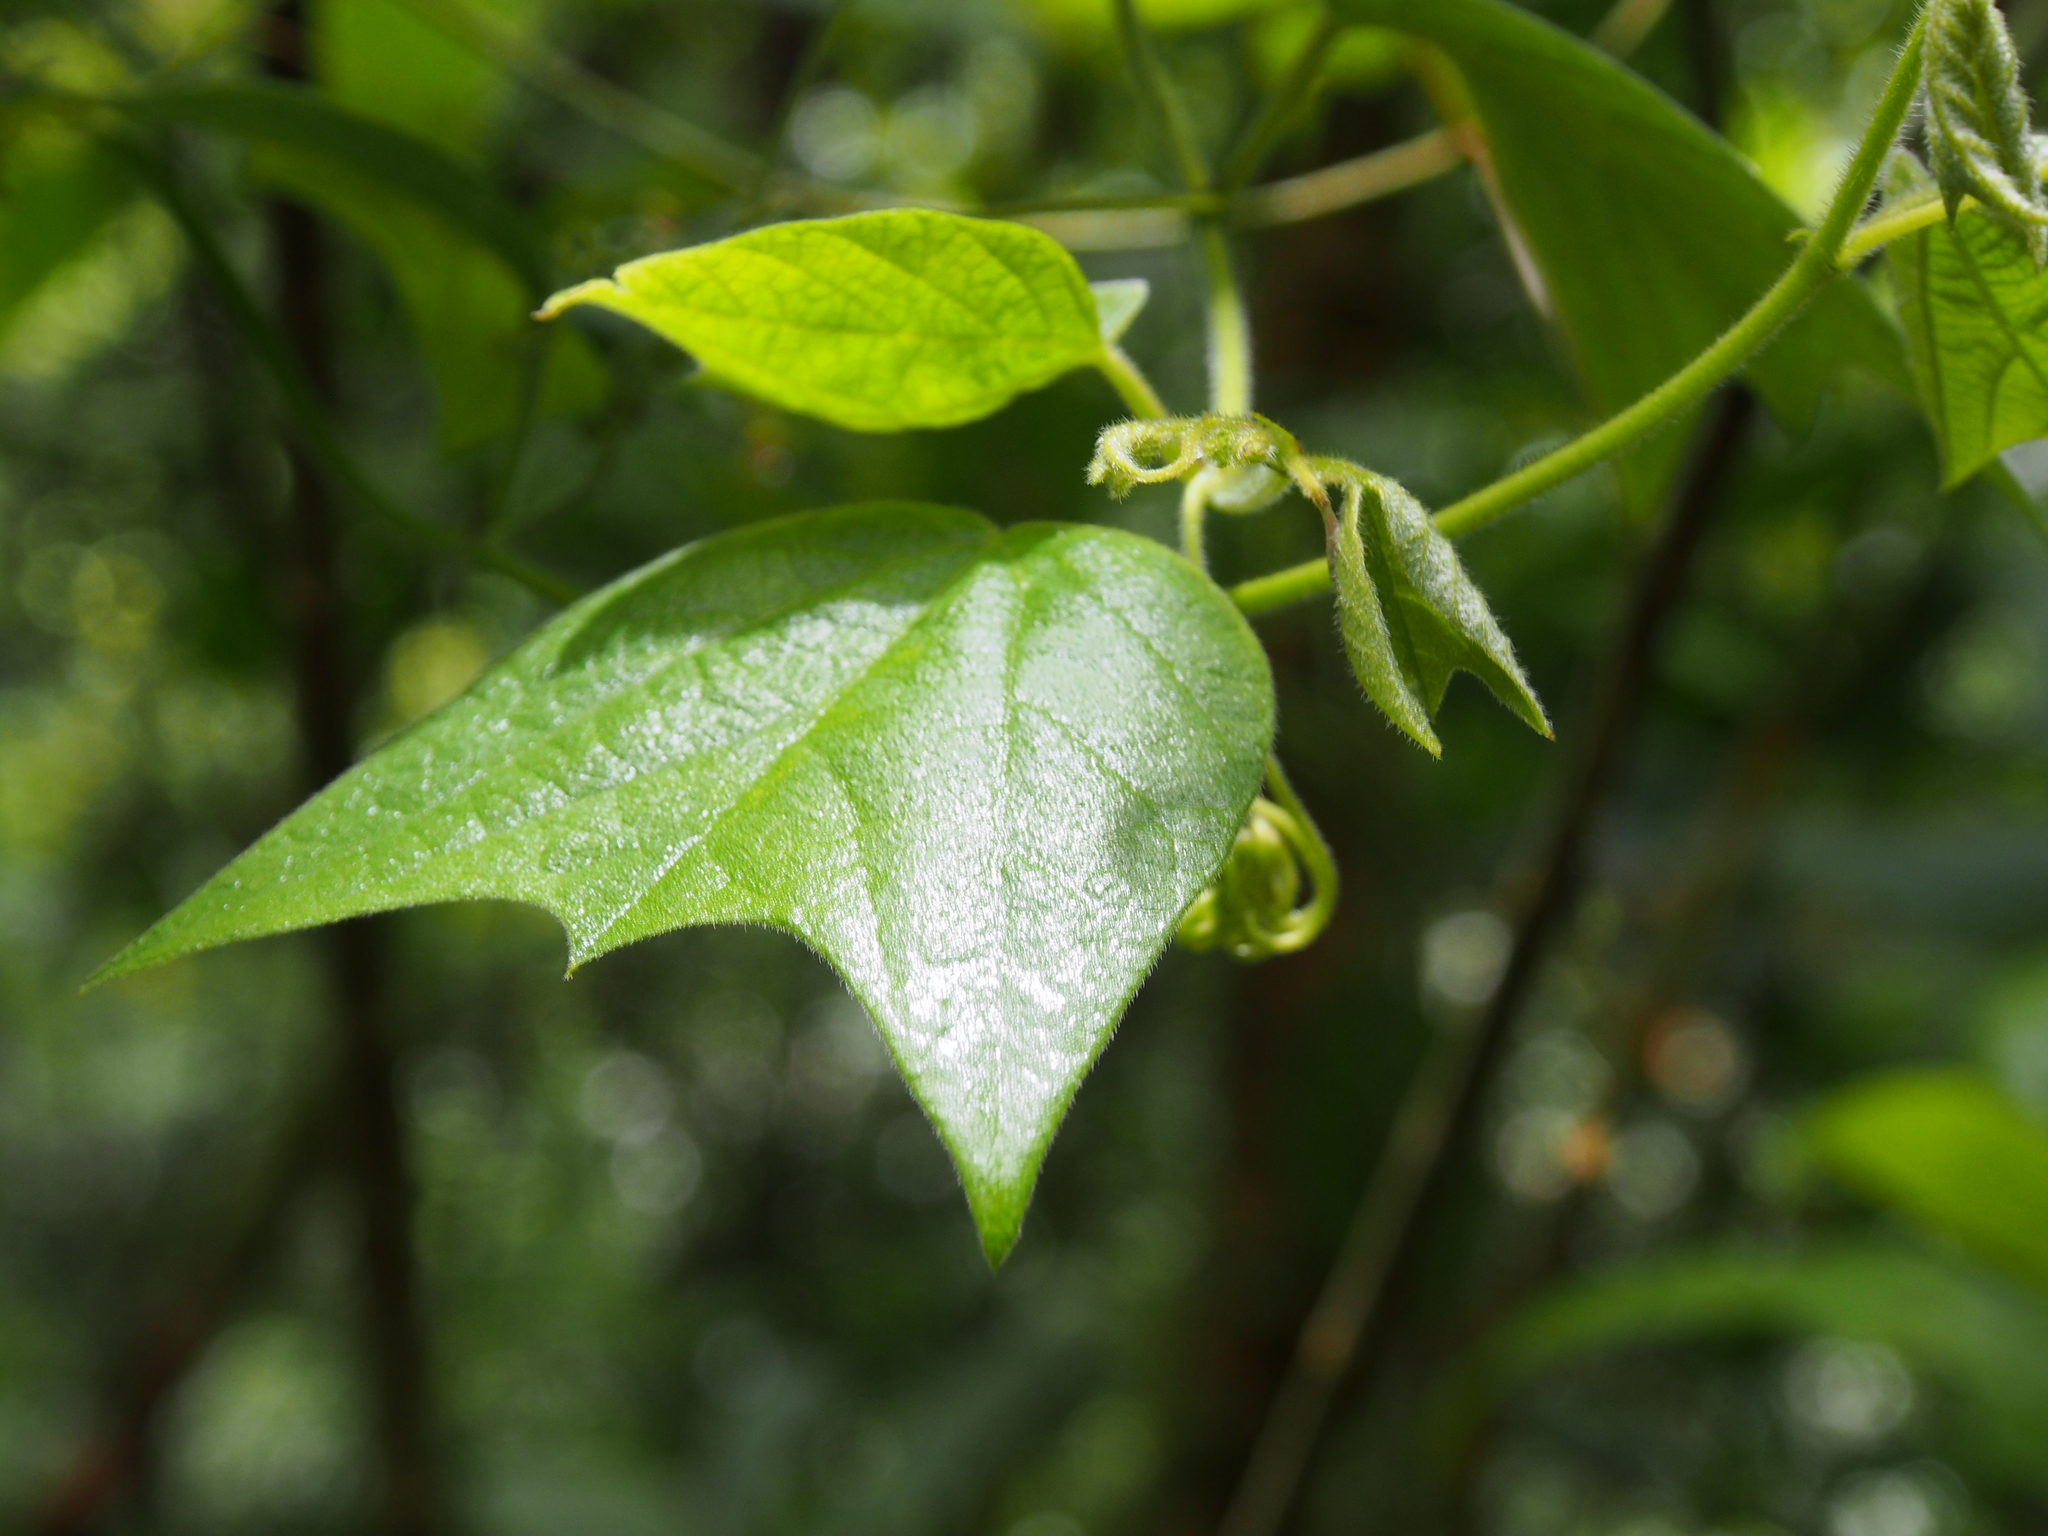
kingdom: Plantae
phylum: Tracheophyta
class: Magnoliopsida
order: Malpighiales
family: Passifloraceae
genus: Passiflora
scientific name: Passiflora biflora
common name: Twoflower passionflower
